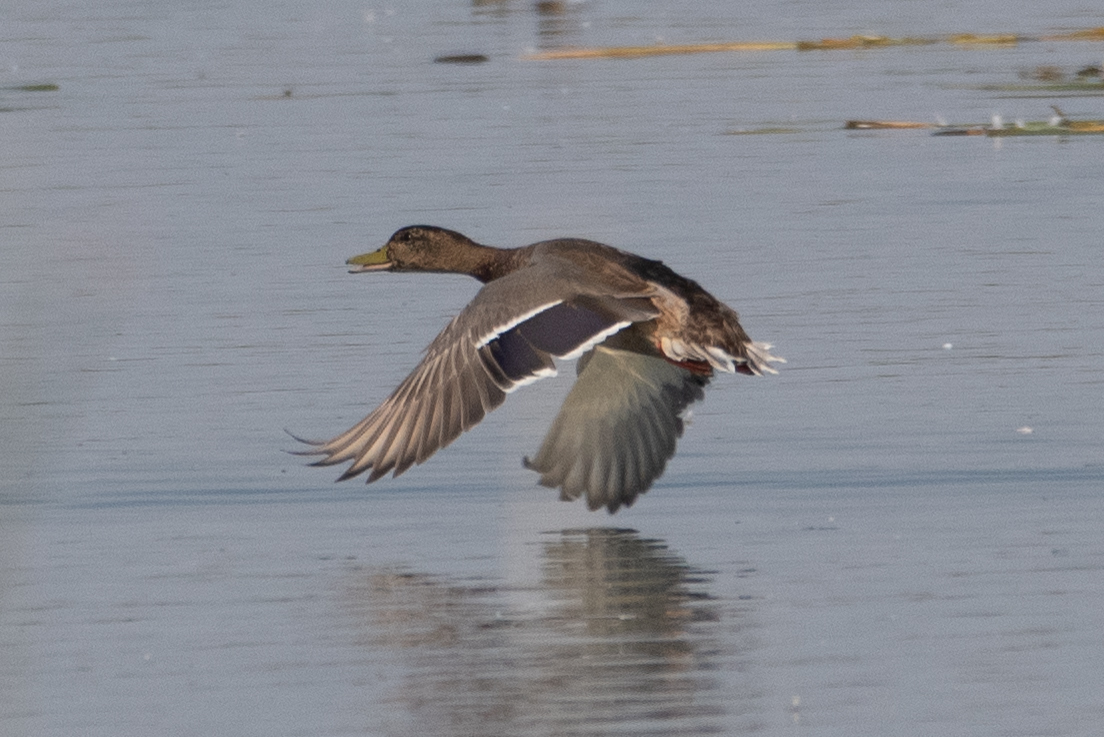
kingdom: Animalia
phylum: Chordata
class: Aves
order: Anseriformes
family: Anatidae
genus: Anas
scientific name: Anas platyrhynchos
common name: Mallard
